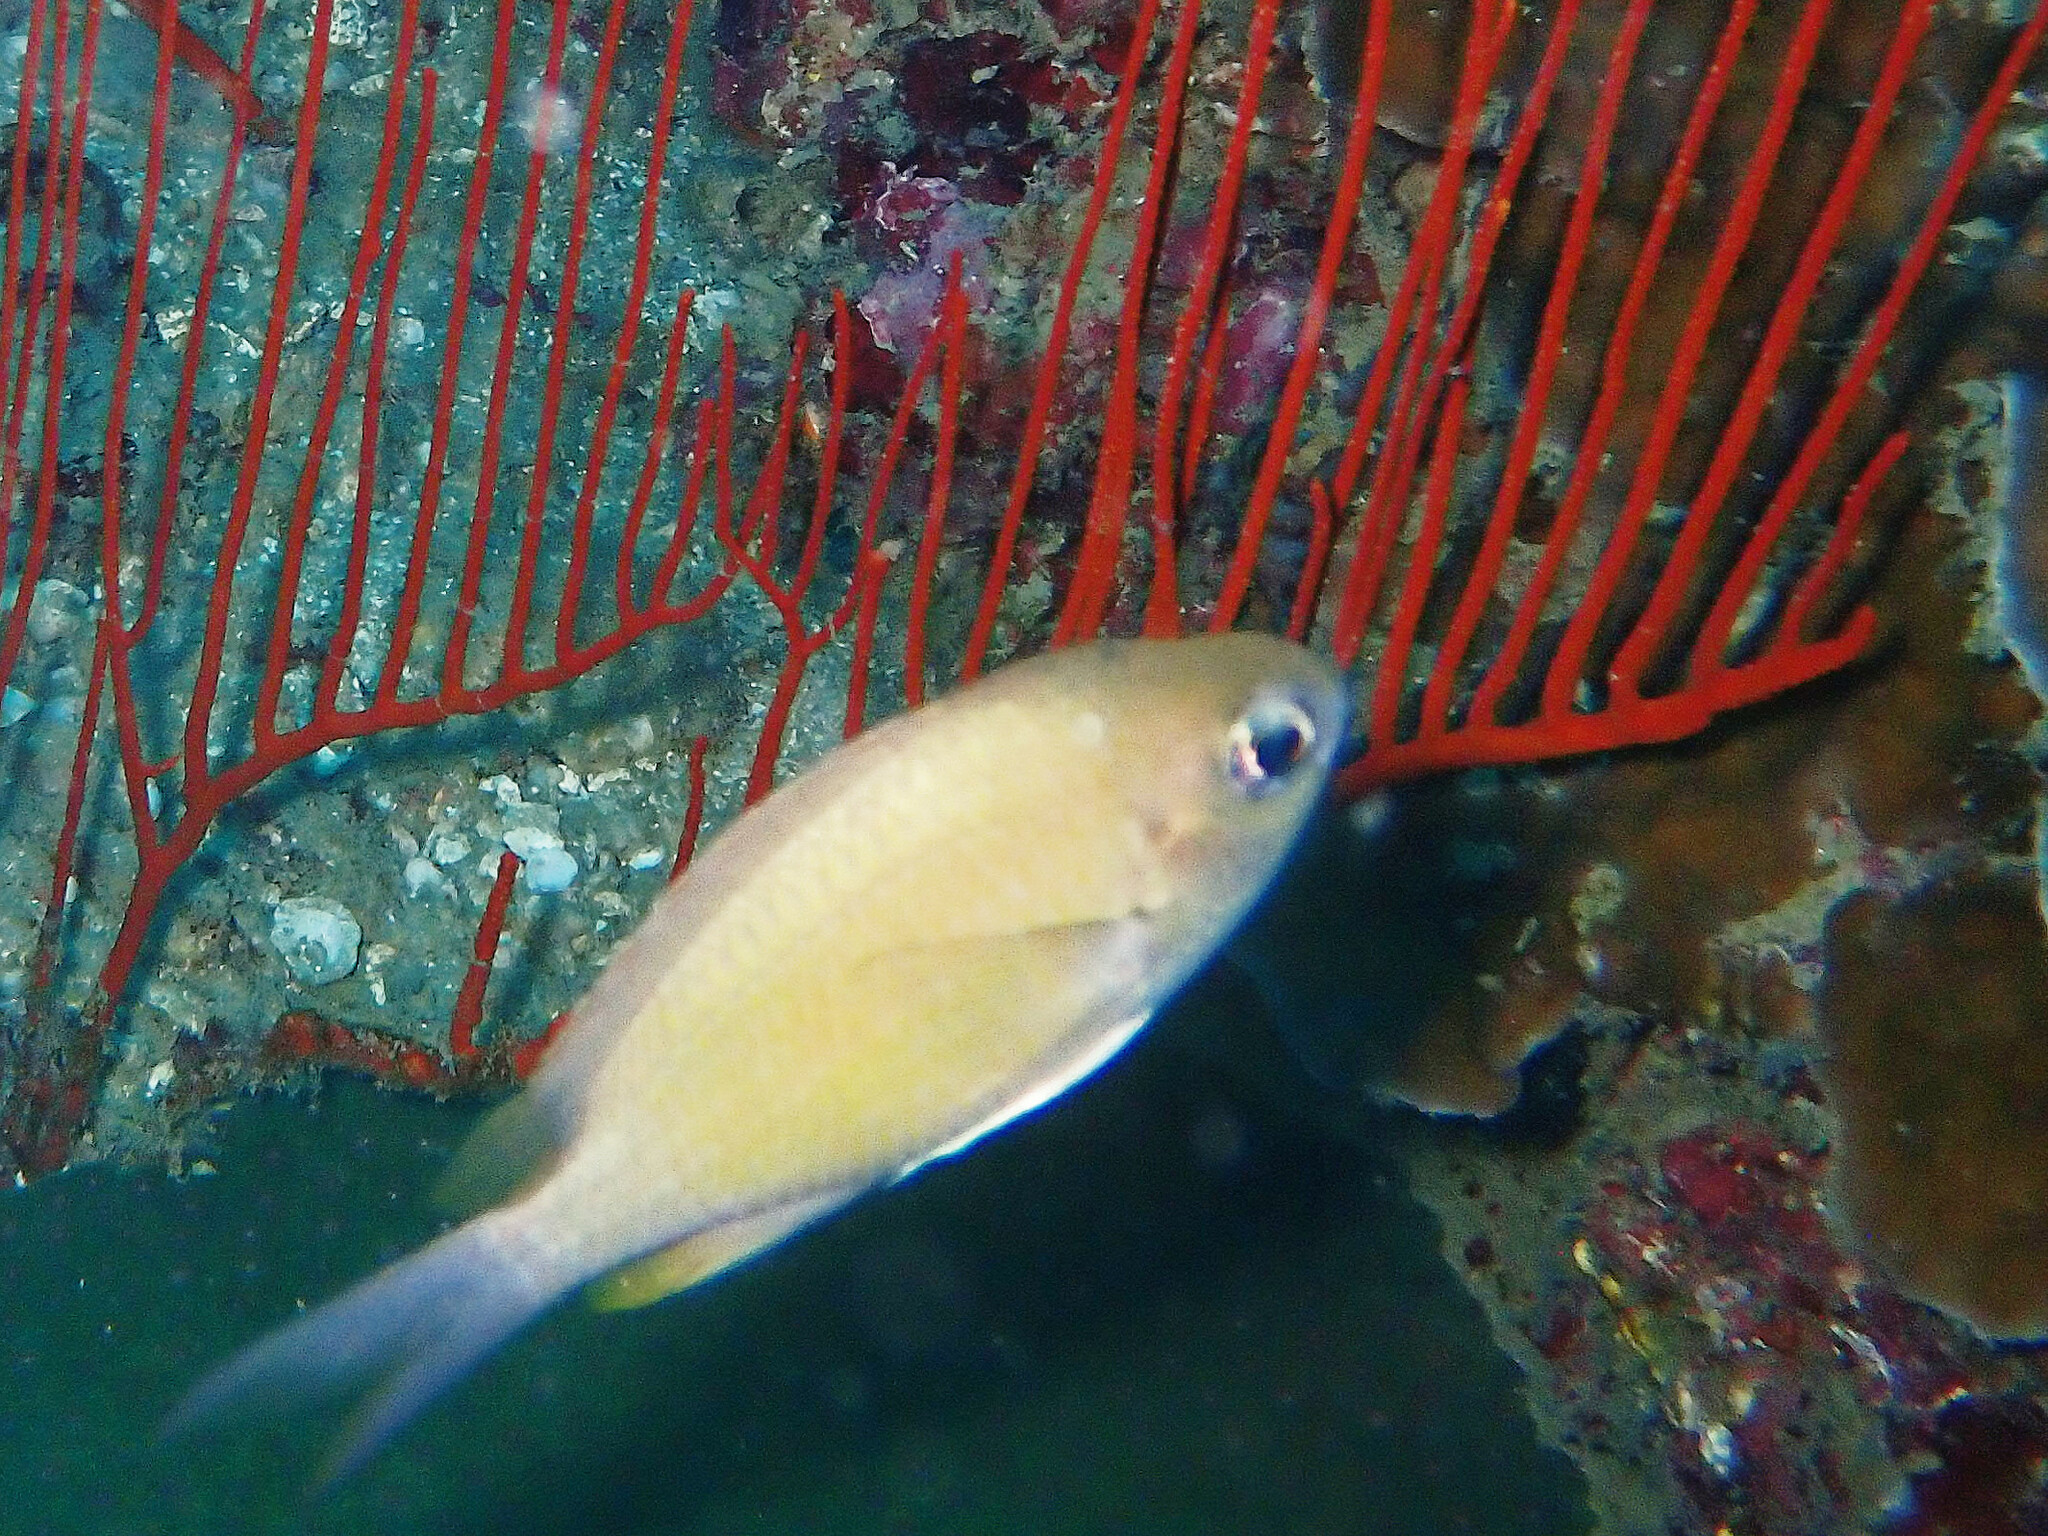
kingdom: Animalia
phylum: Chordata
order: Perciformes
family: Pomacentridae
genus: Chromis
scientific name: Chromis cinerascens
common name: Green chromis
